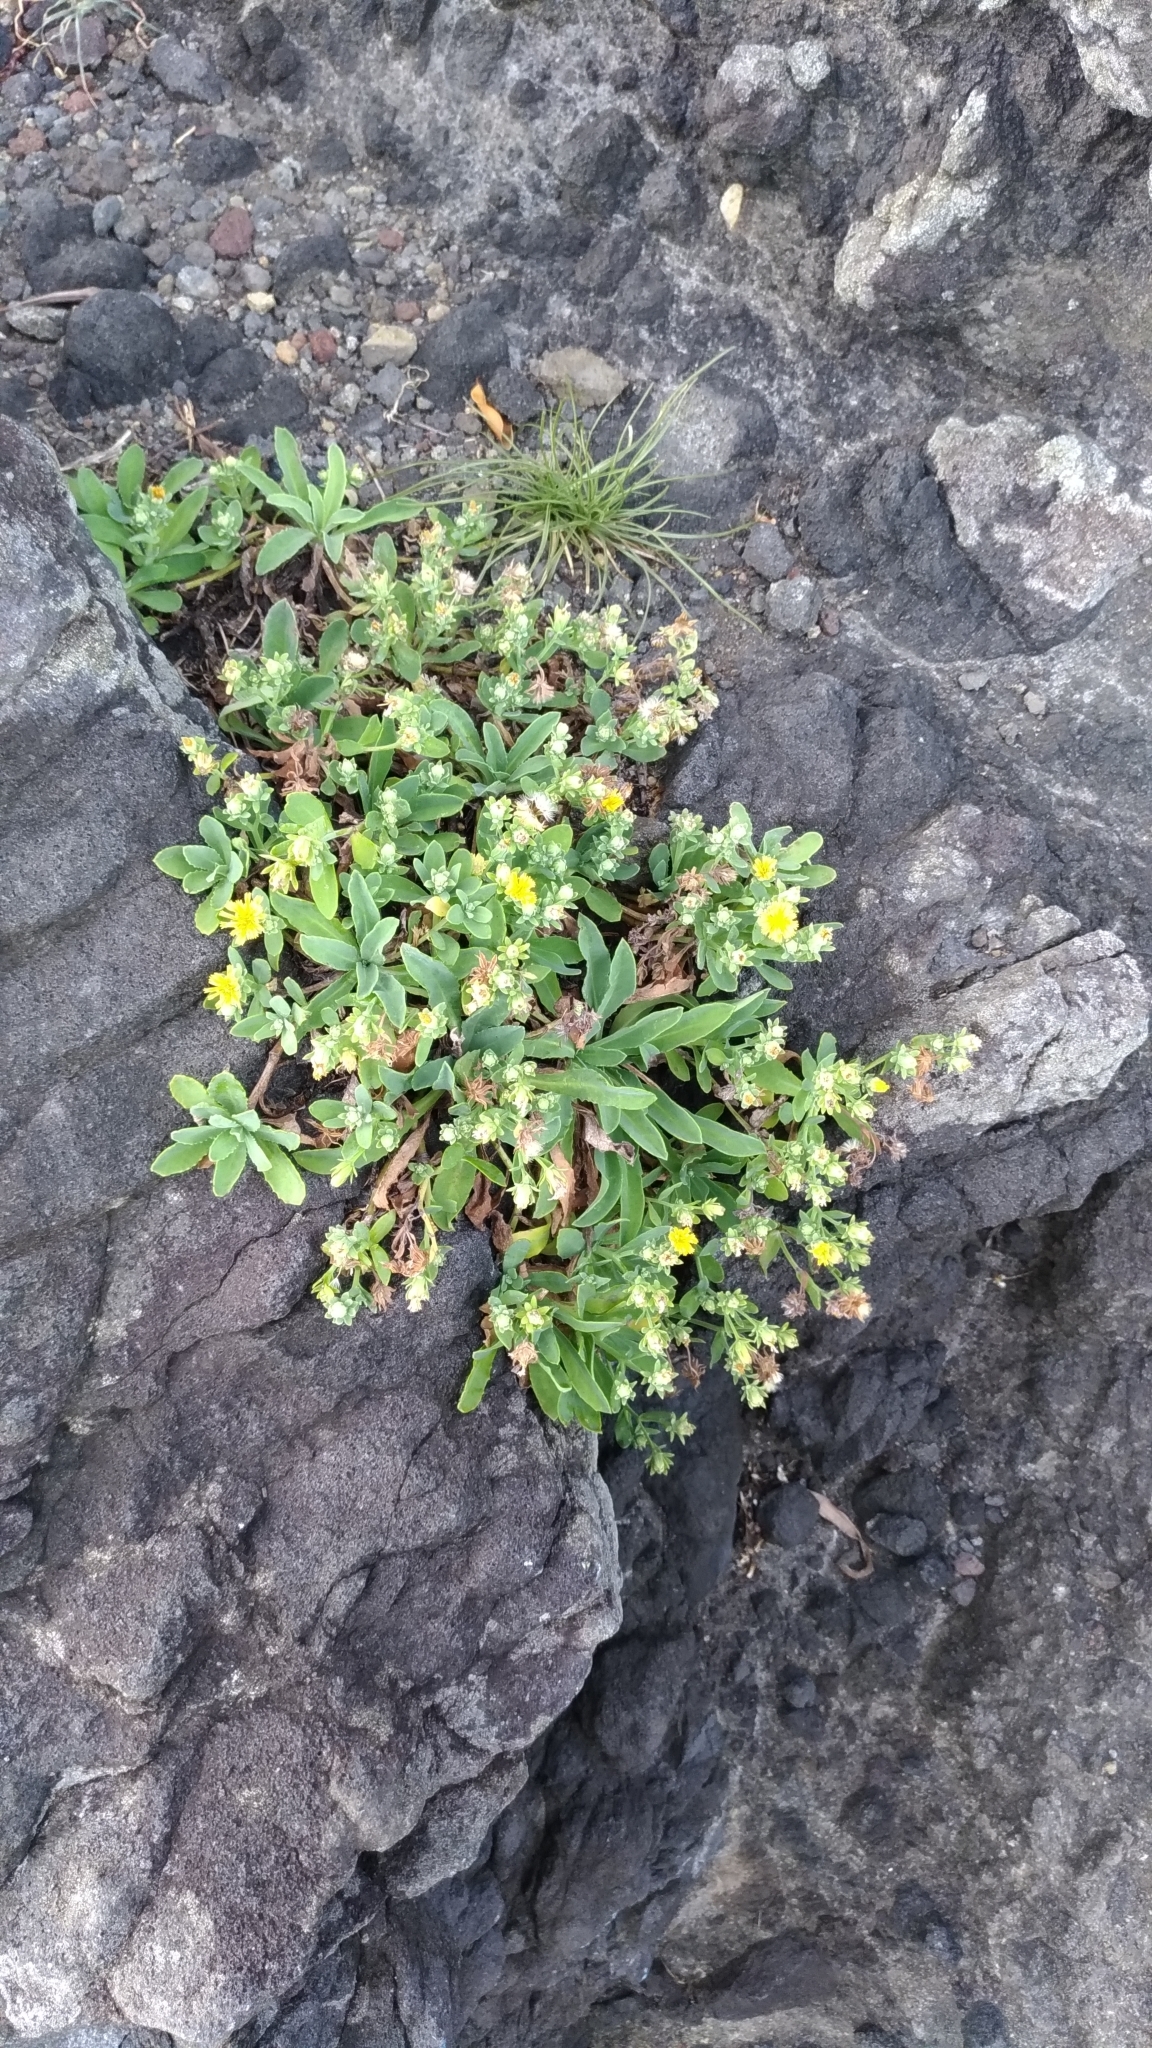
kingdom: Plantae
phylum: Tracheophyta
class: Magnoliopsida
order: Asterales
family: Asteraceae
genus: Crepidiastrum
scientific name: Crepidiastrum lanceolatum
